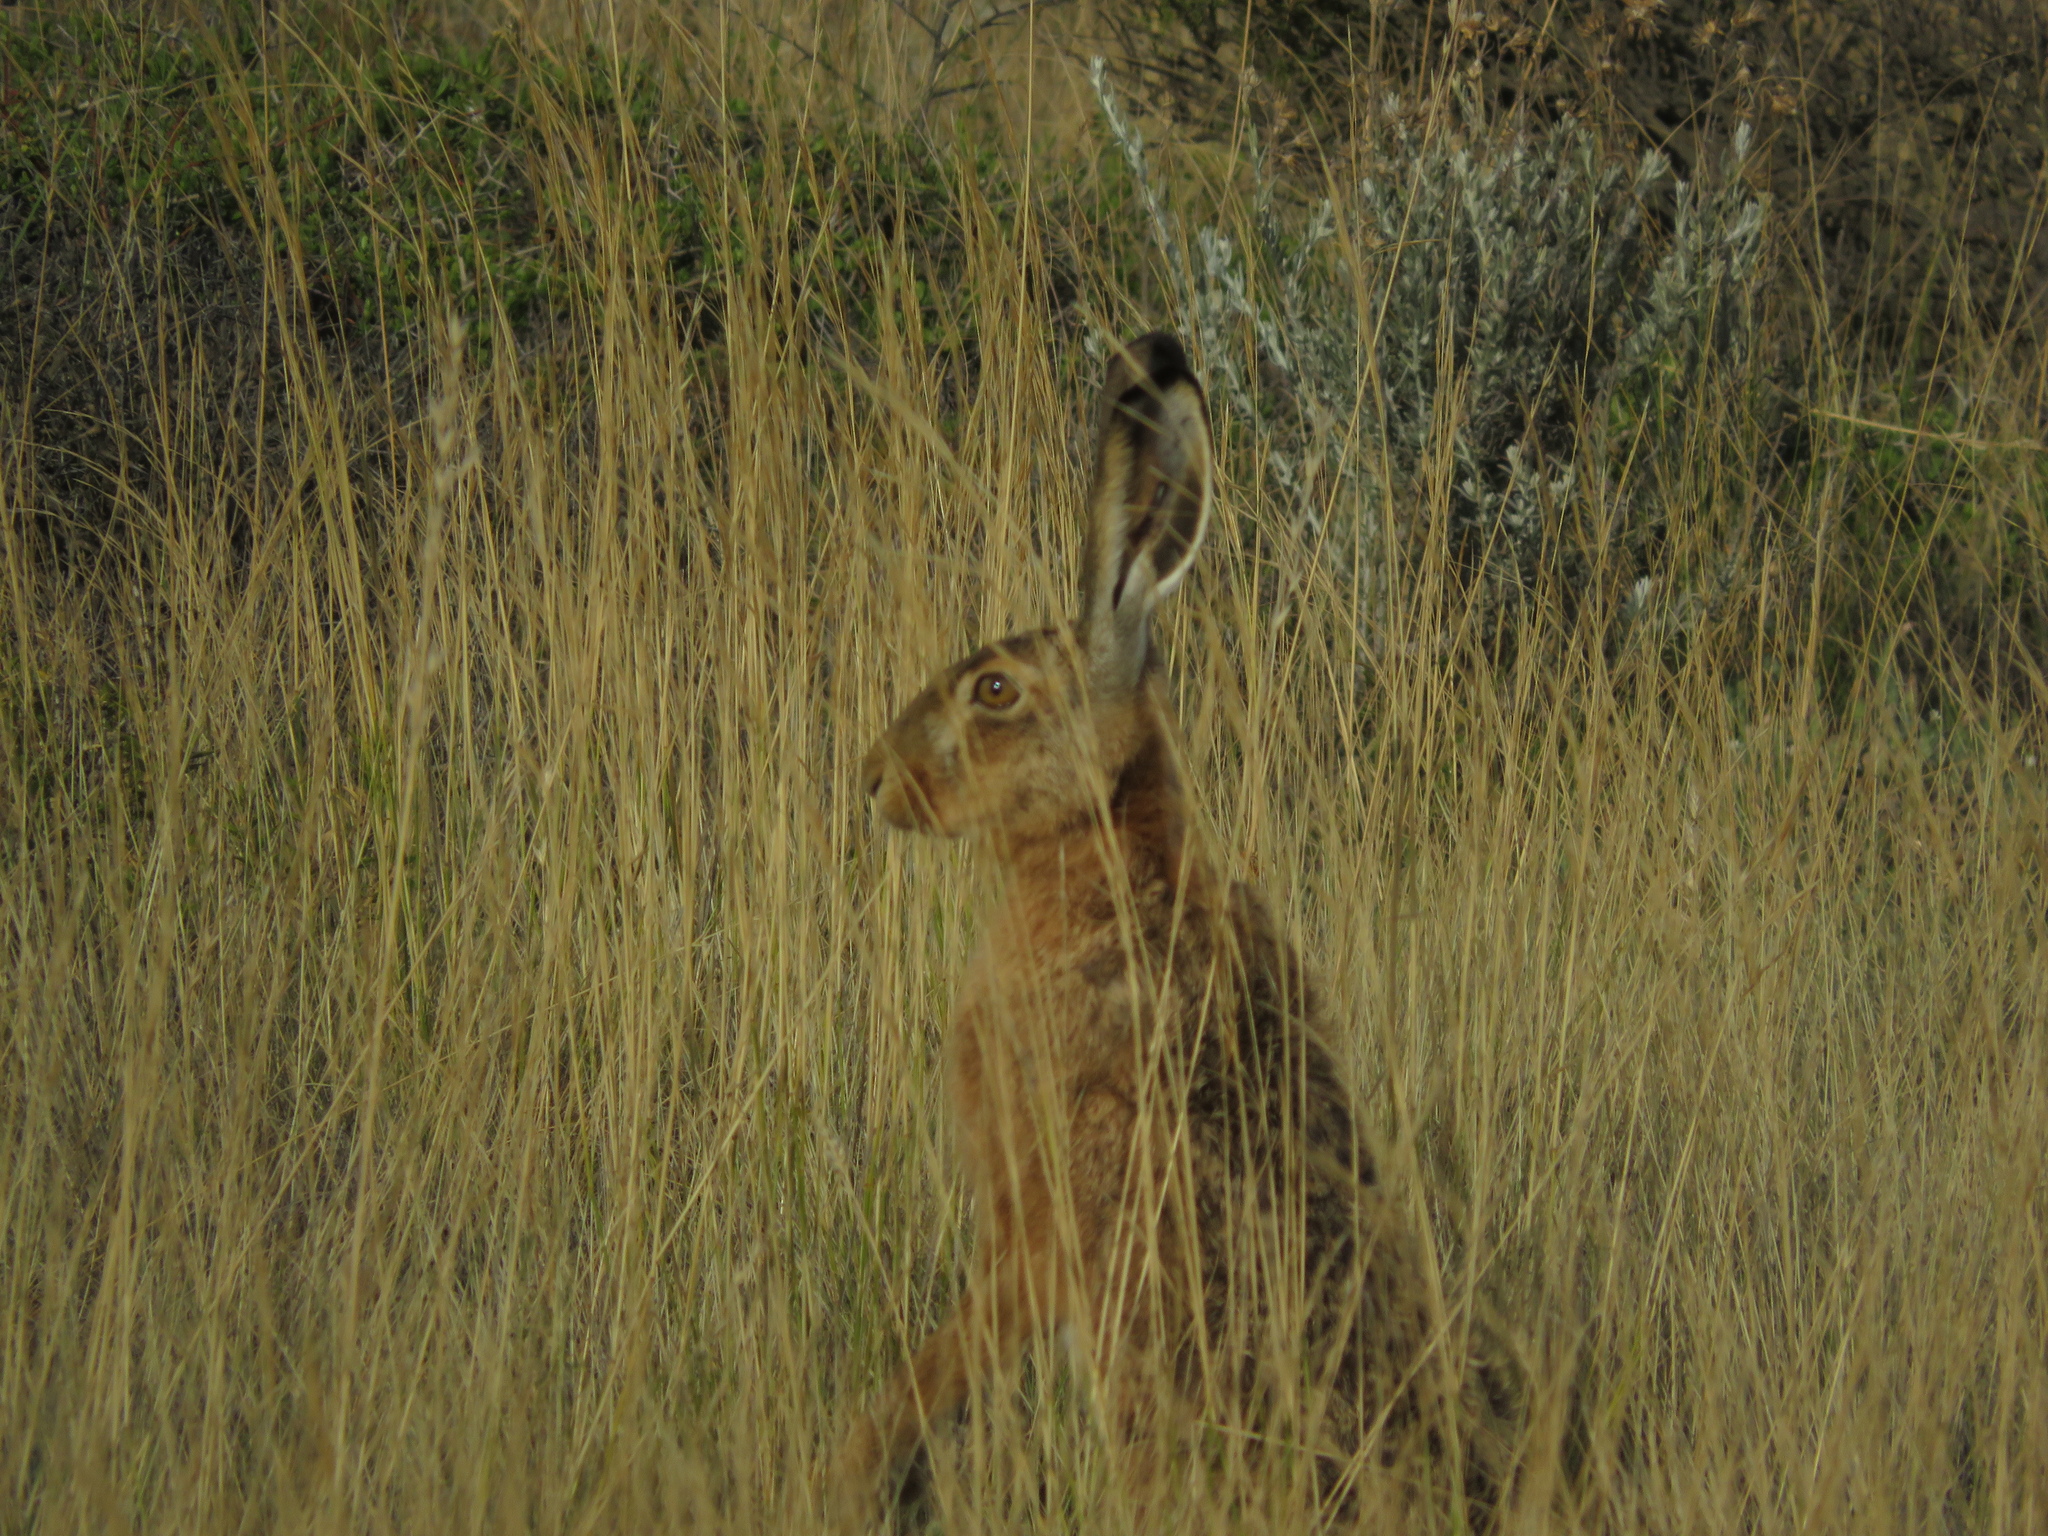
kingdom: Animalia
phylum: Chordata
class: Mammalia
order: Lagomorpha
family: Leporidae
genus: Lepus
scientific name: Lepus europaeus
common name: European hare
